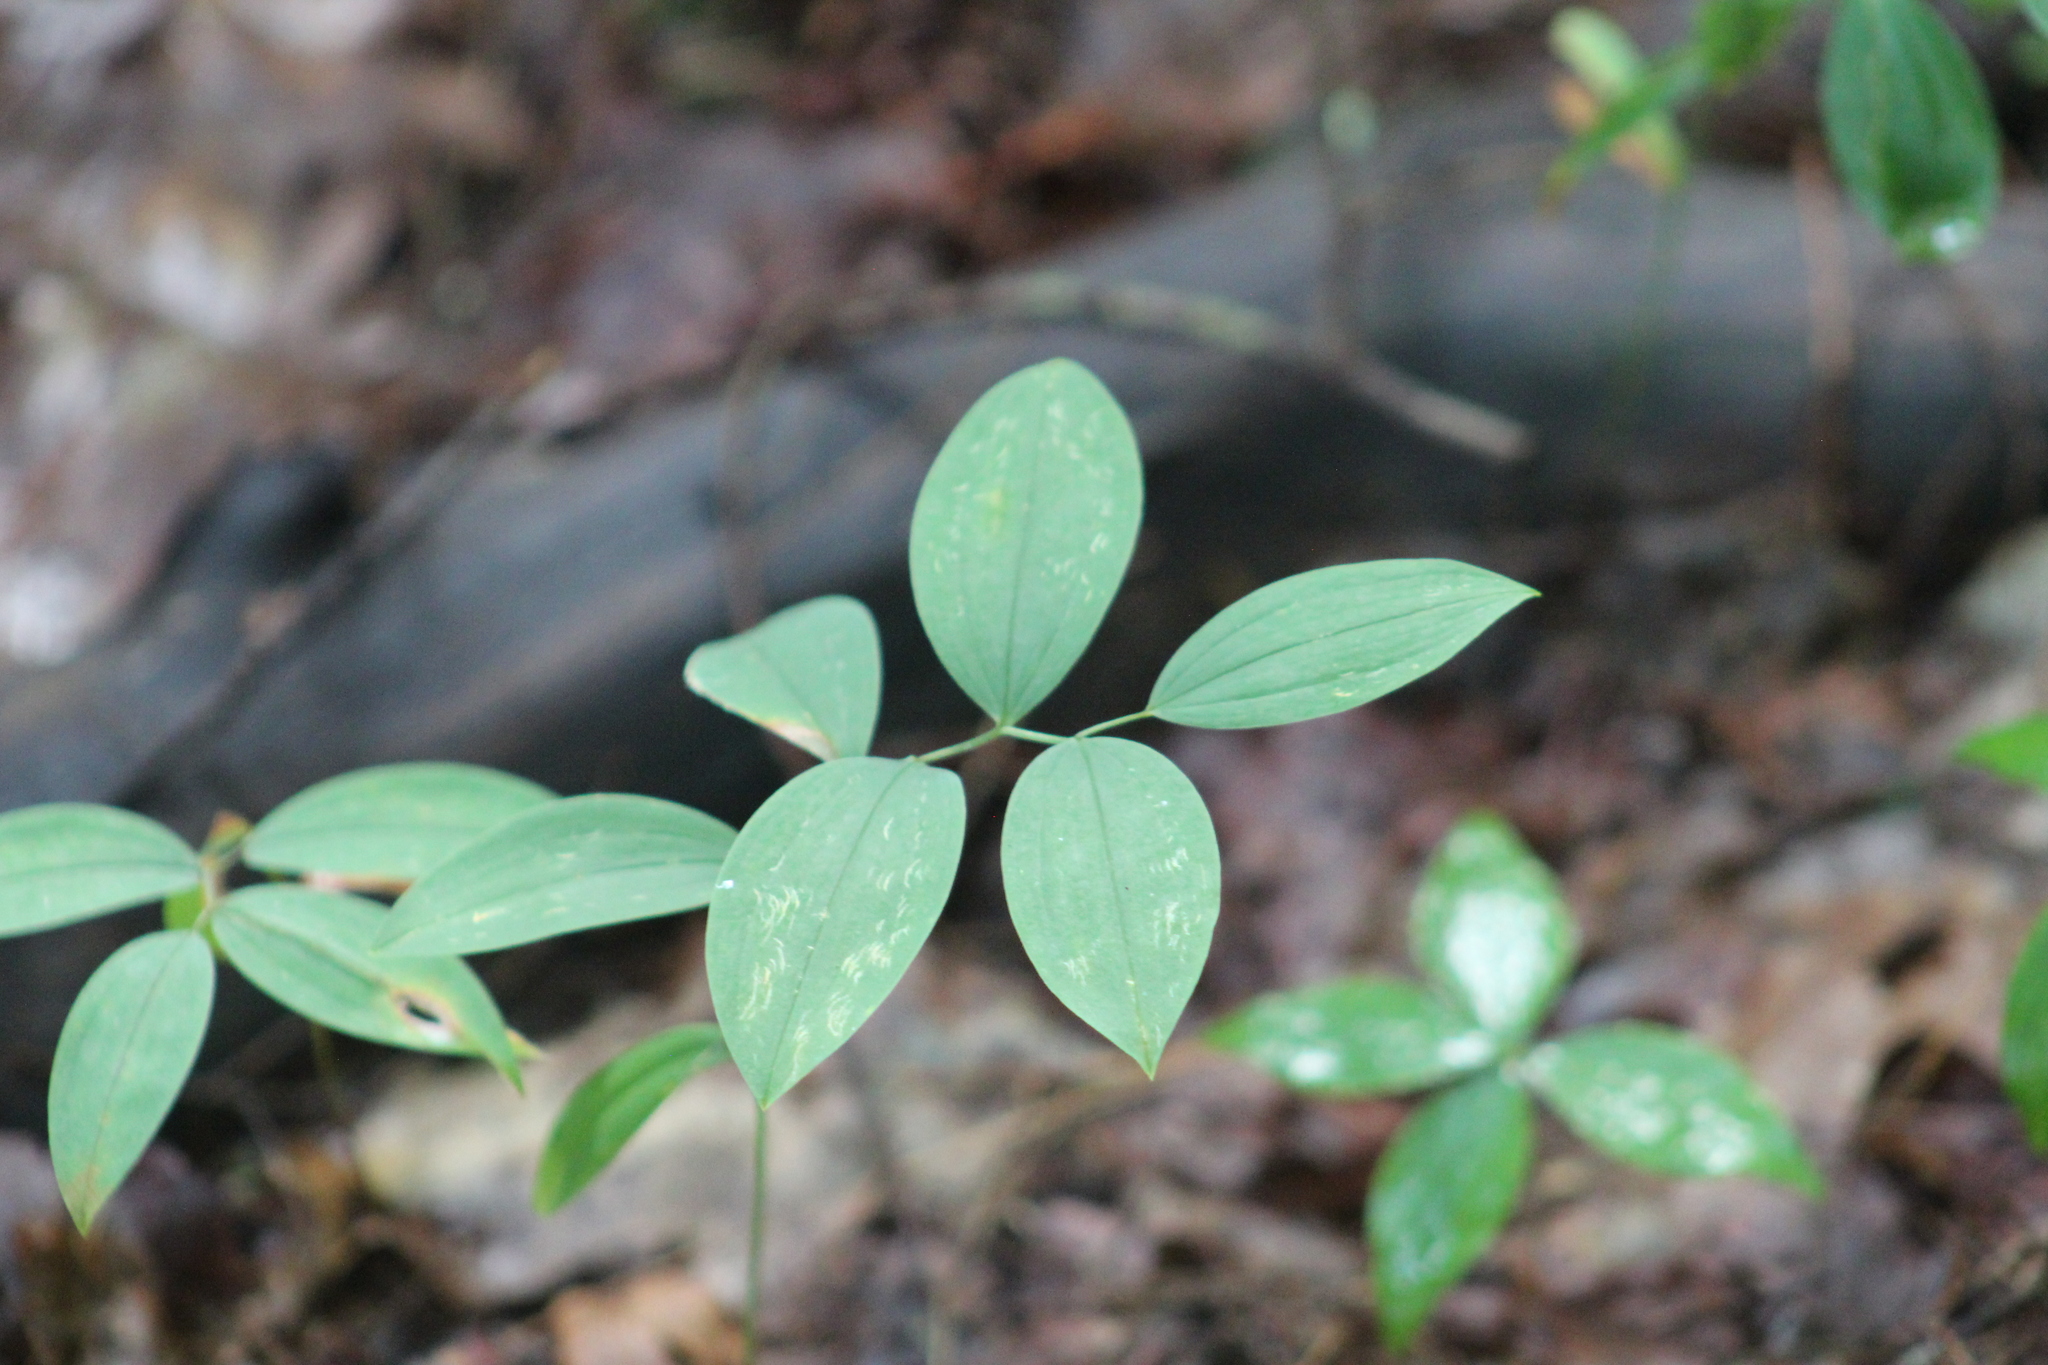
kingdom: Plantae
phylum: Tracheophyta
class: Liliopsida
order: Liliales
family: Colchicaceae
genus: Uvularia
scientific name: Uvularia sessilifolia
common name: Straw-lily
